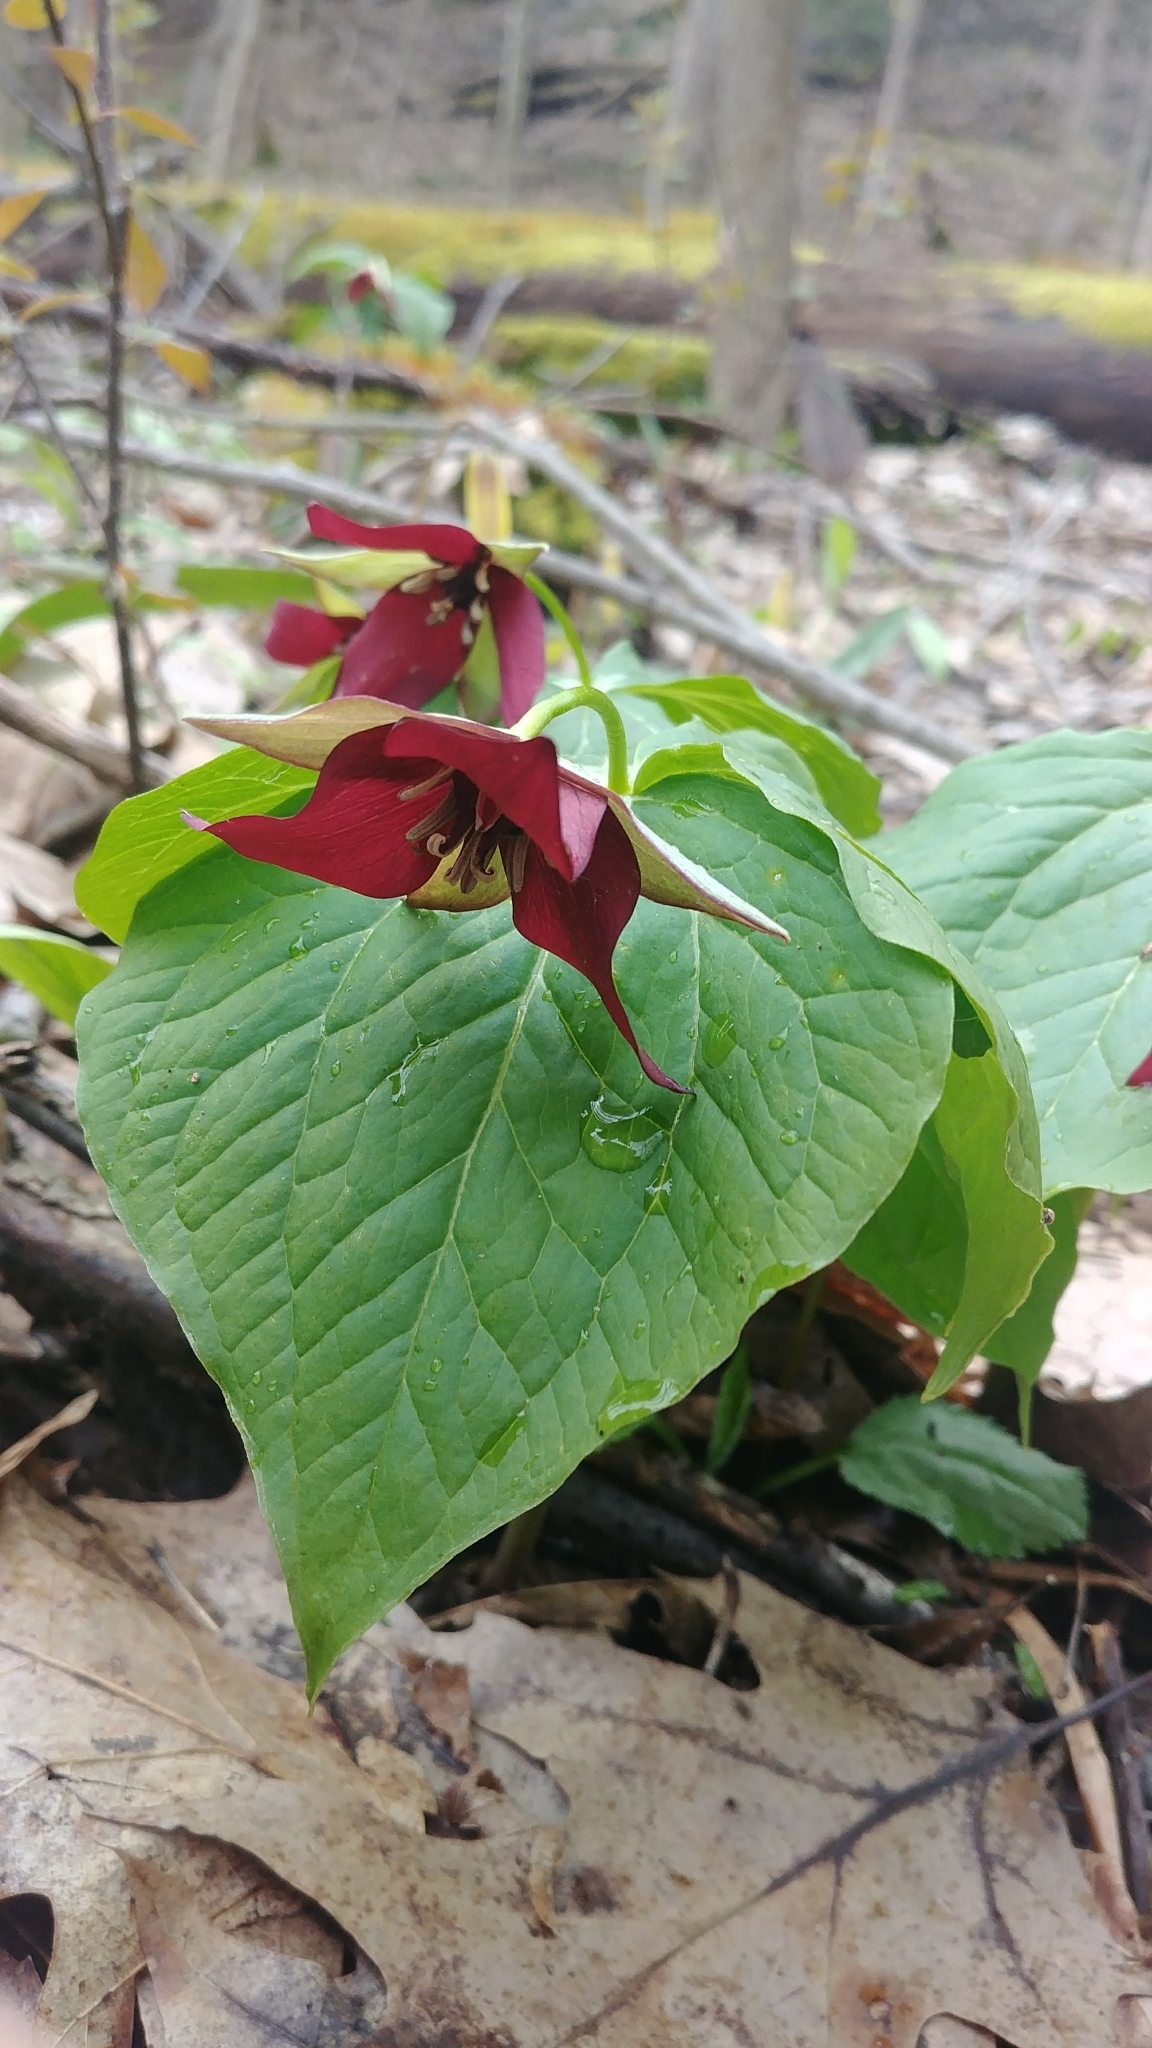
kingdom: Plantae
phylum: Tracheophyta
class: Liliopsida
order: Liliales
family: Melanthiaceae
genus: Trillium
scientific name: Trillium erectum
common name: Purple trillium
